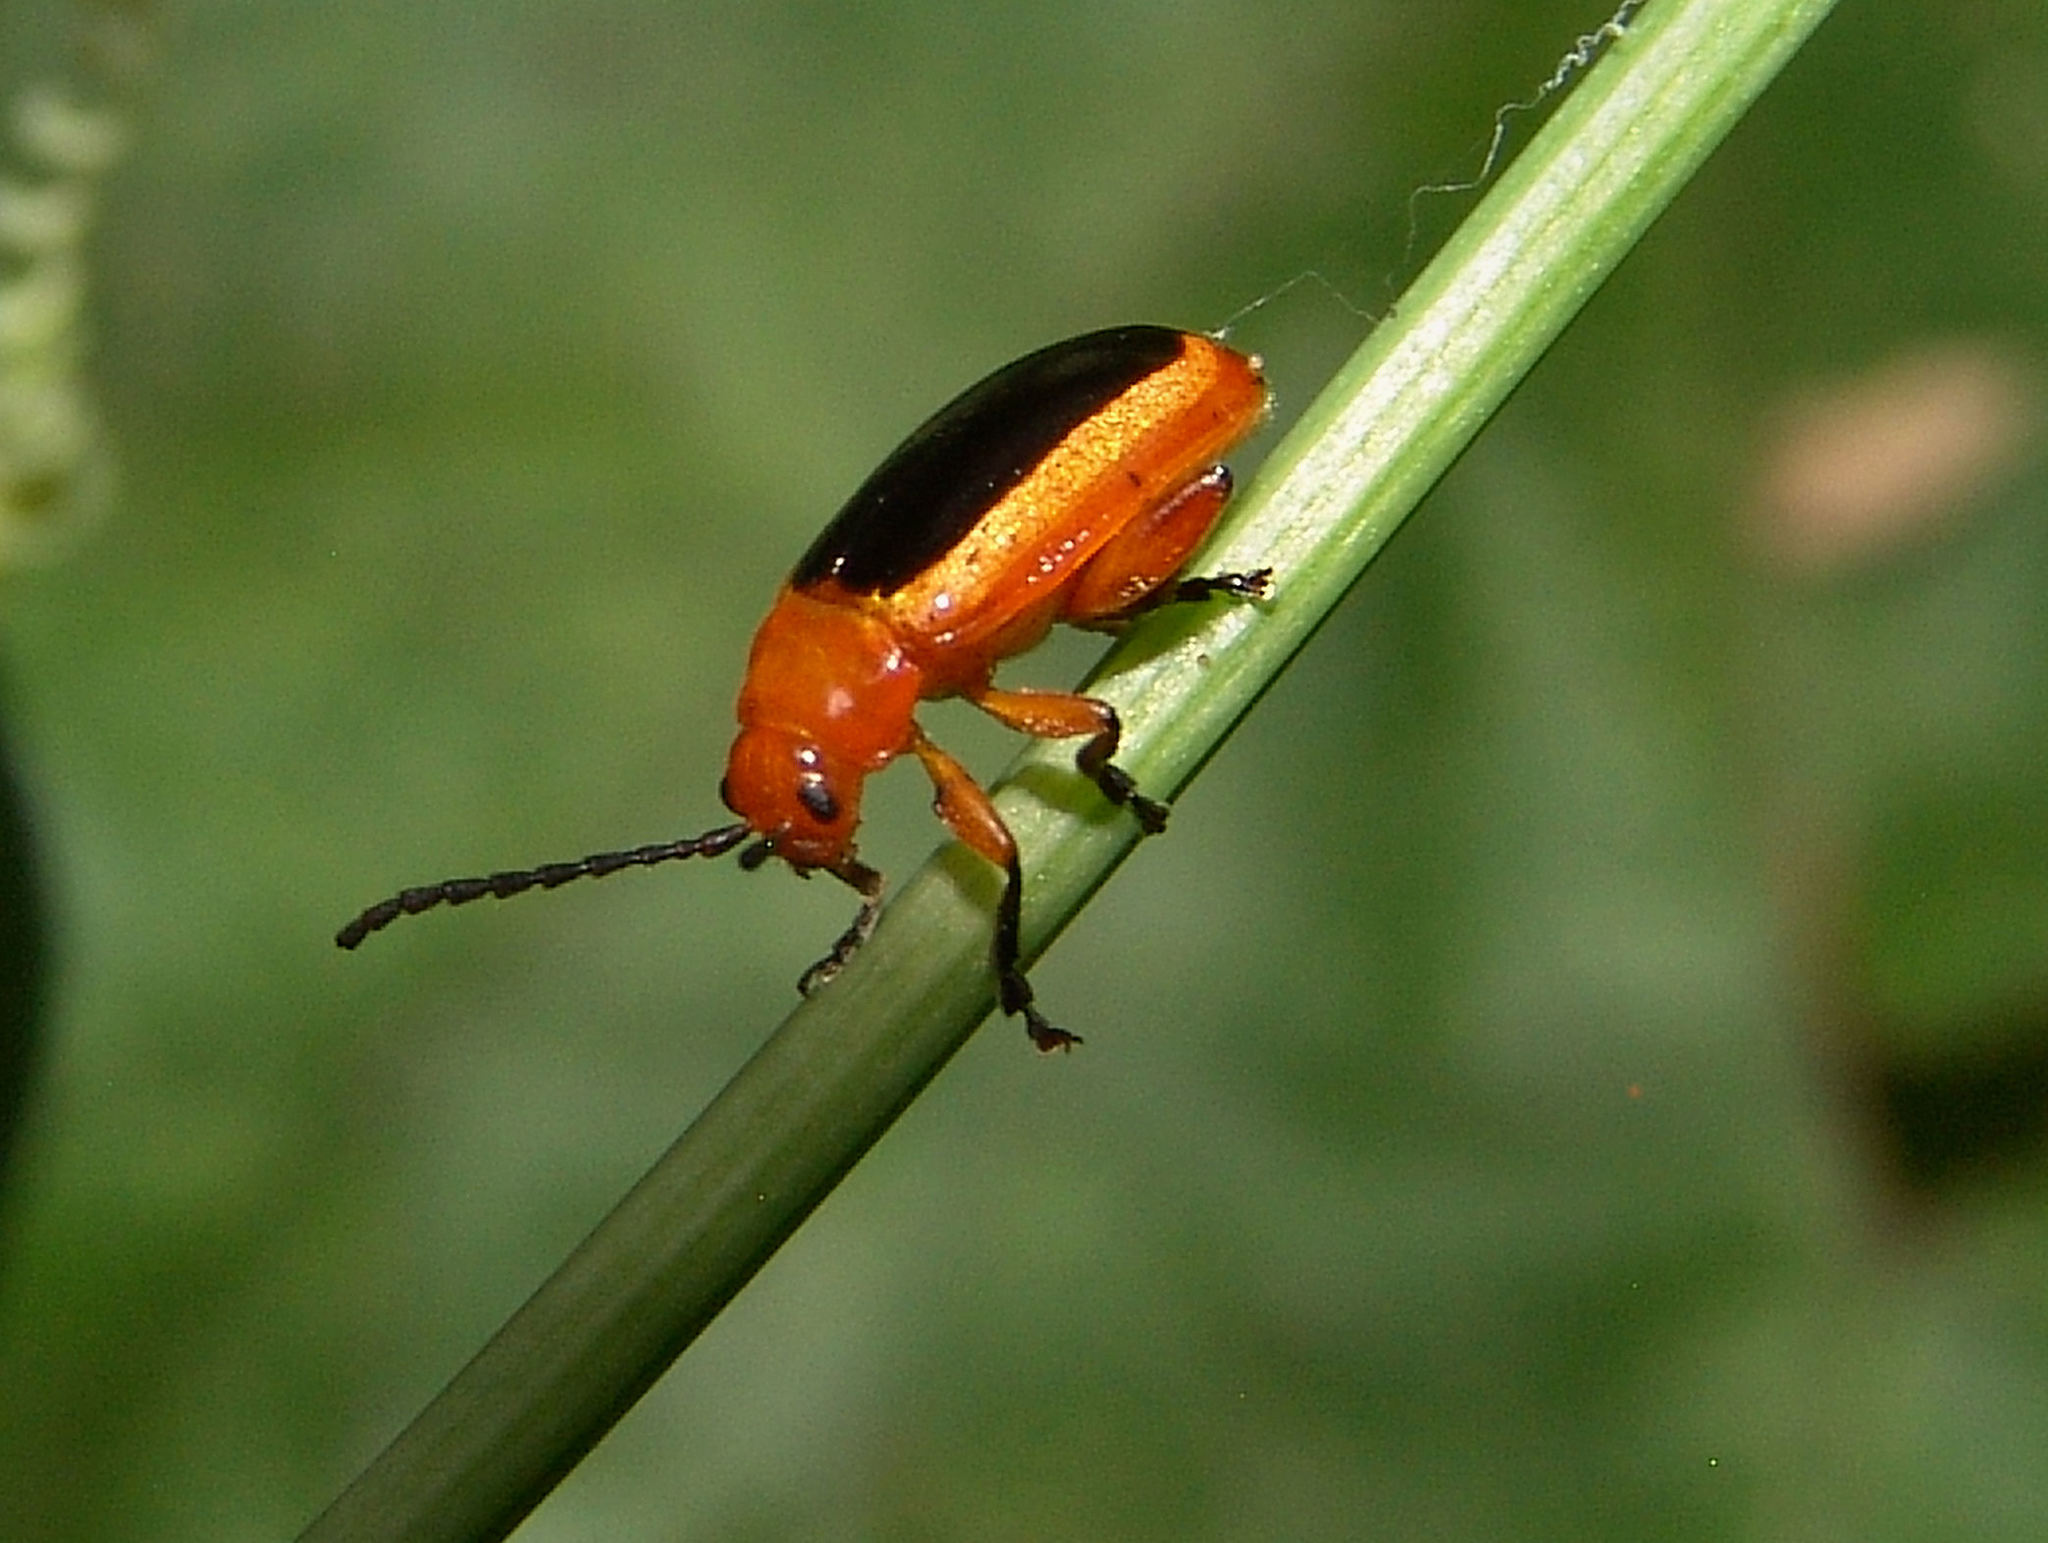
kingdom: Animalia
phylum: Arthropoda
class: Insecta
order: Coleoptera
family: Chrysomelidae
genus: Disonycha
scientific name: Disonycha discoidea
